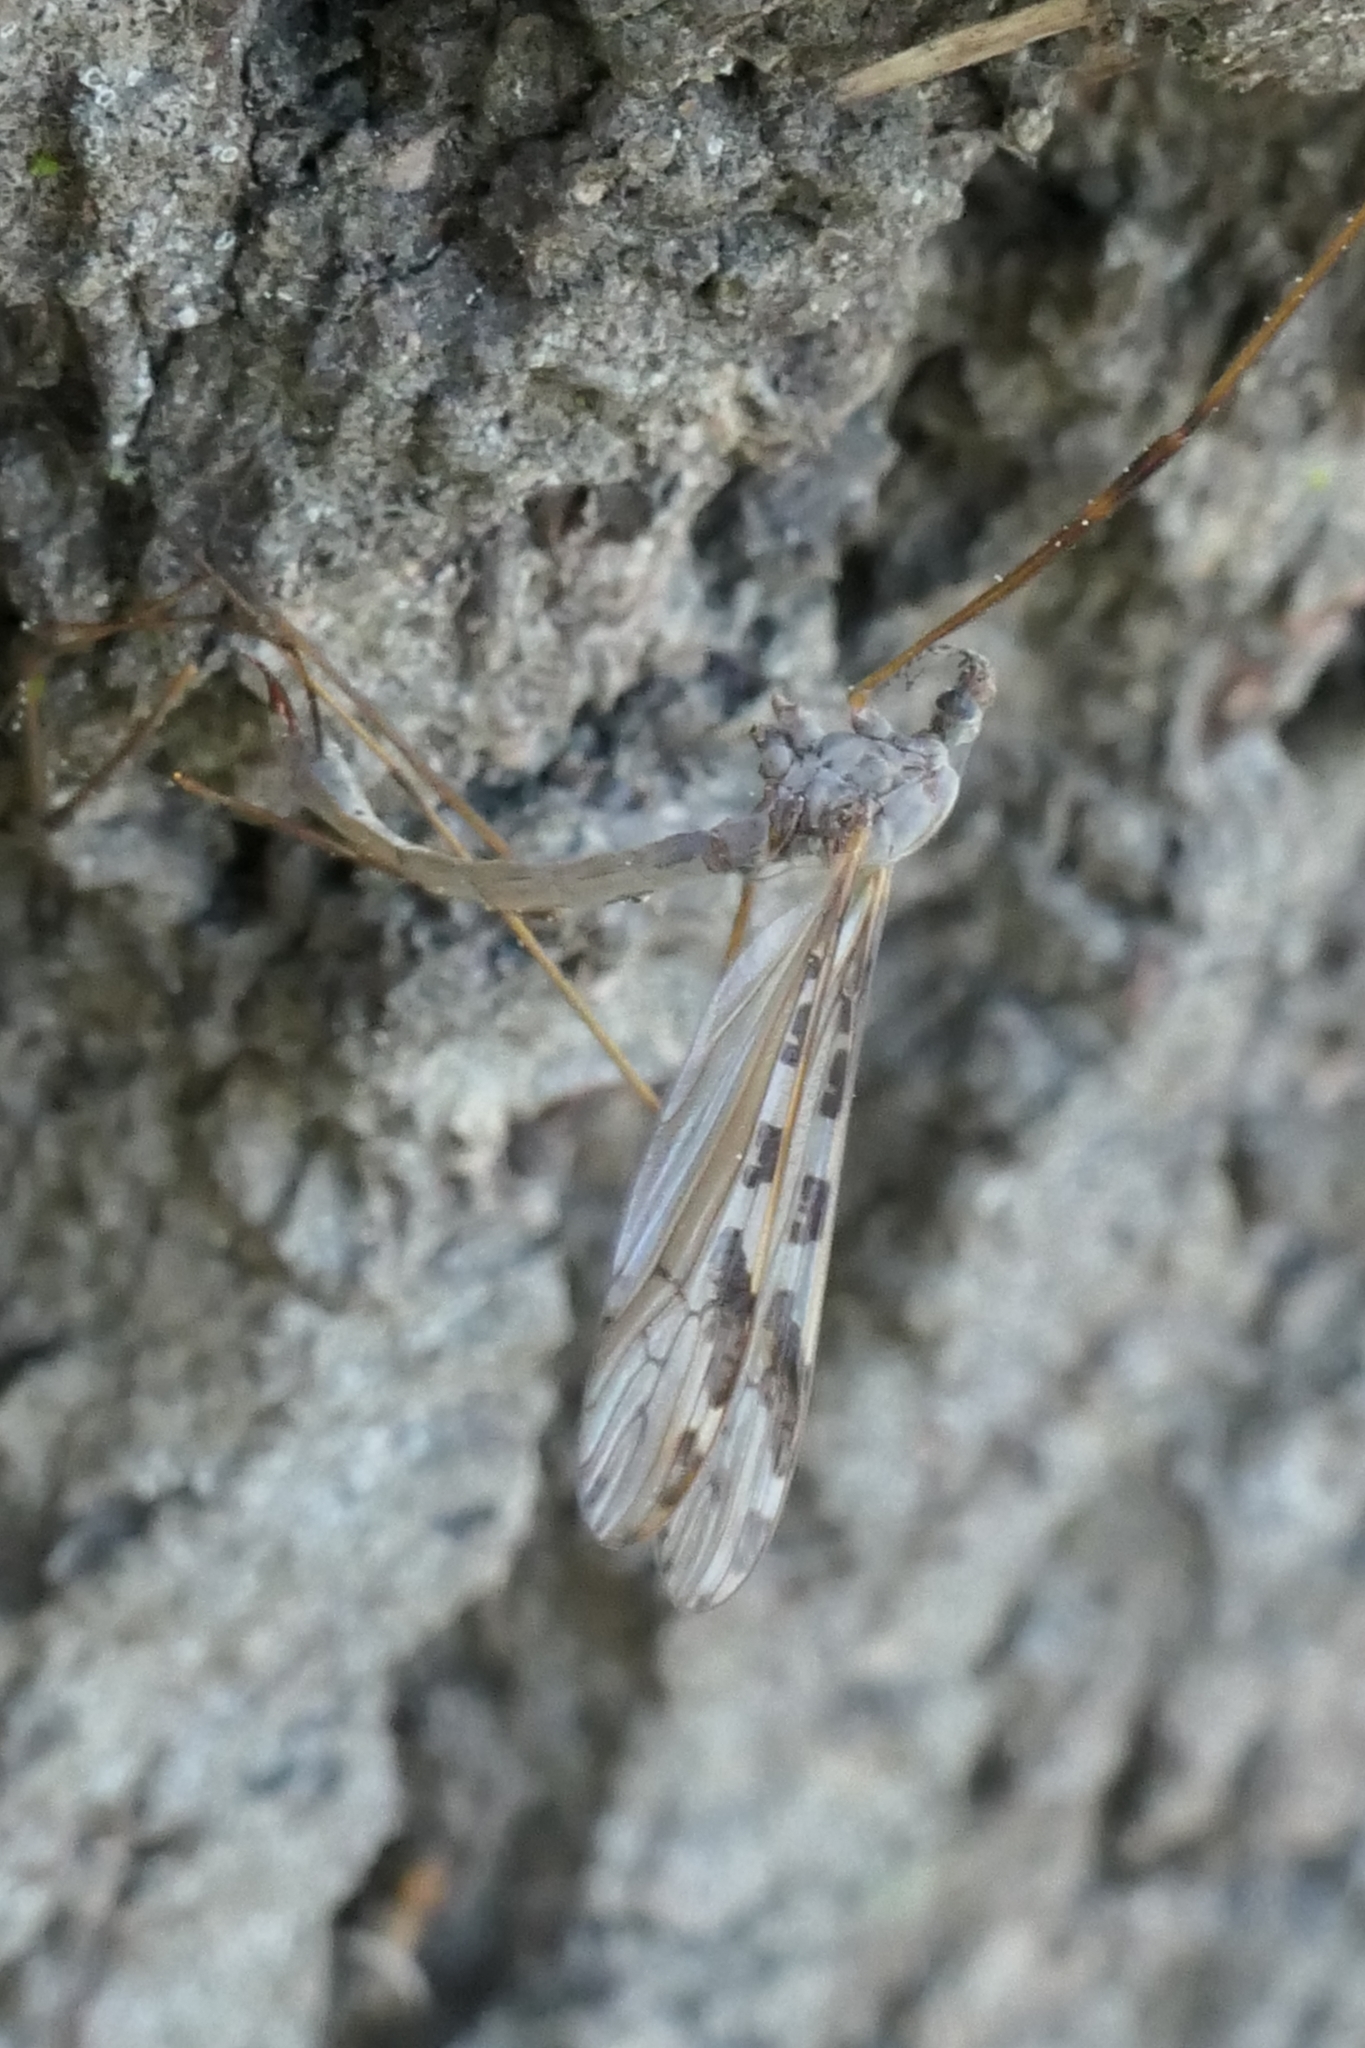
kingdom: Animalia
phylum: Arthropoda
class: Insecta
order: Diptera
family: Limoniidae
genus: Paralimnophila
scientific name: Paralimnophila skusei
